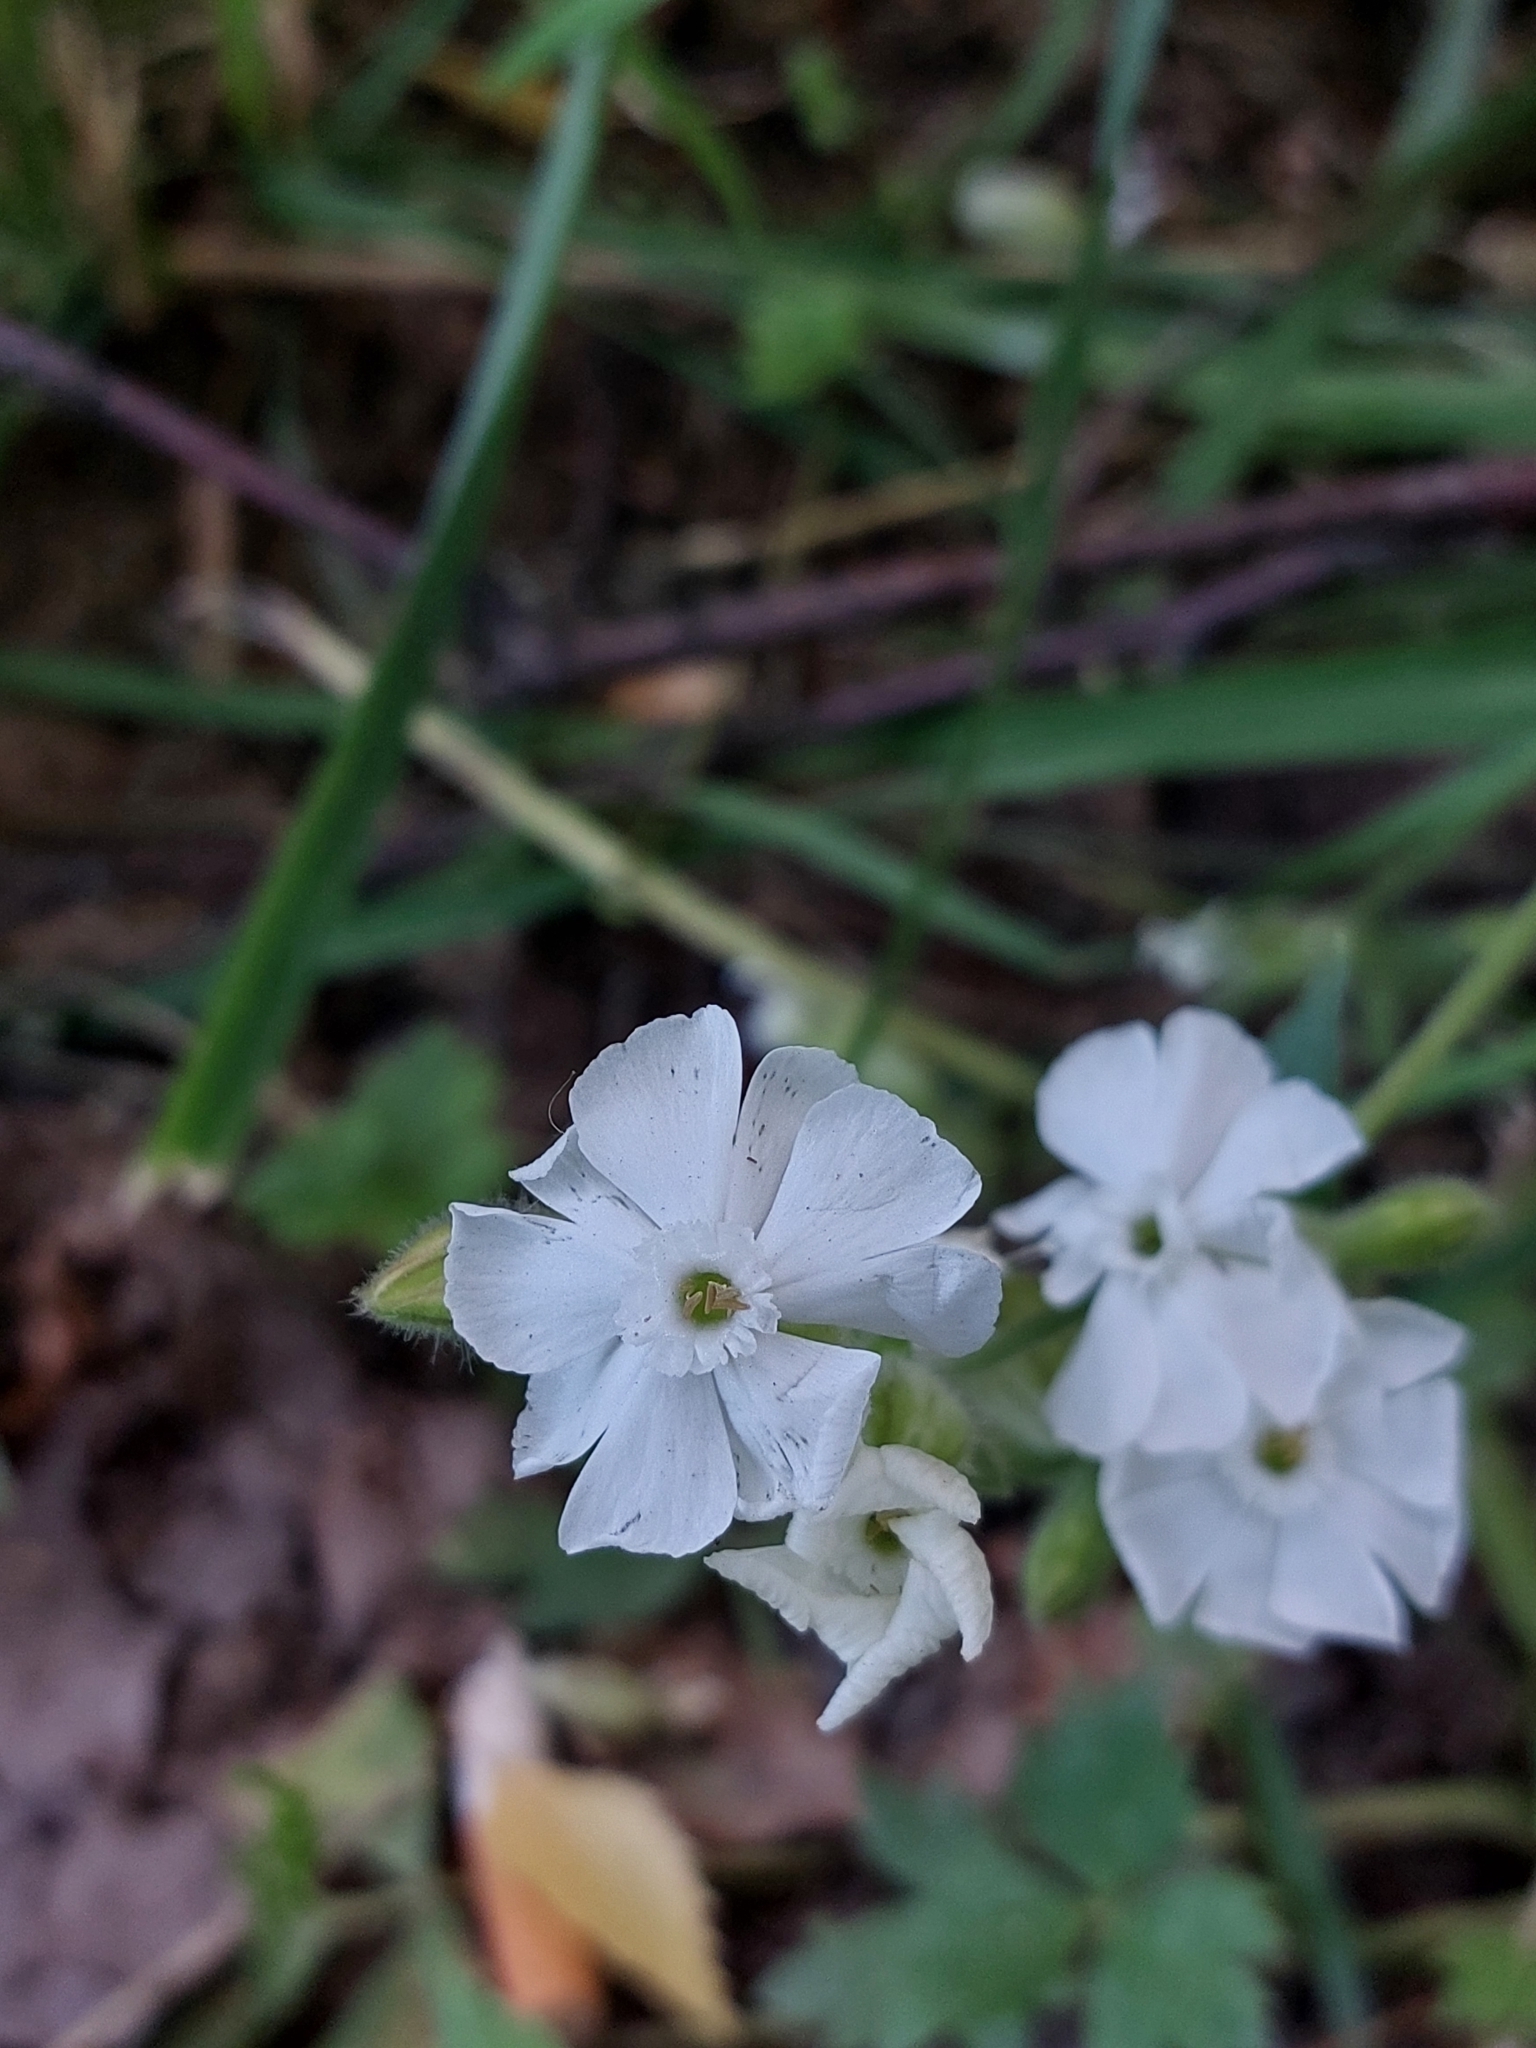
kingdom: Plantae
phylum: Tracheophyta
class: Magnoliopsida
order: Caryophyllales
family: Caryophyllaceae
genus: Silene
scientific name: Silene latifolia
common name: White campion
